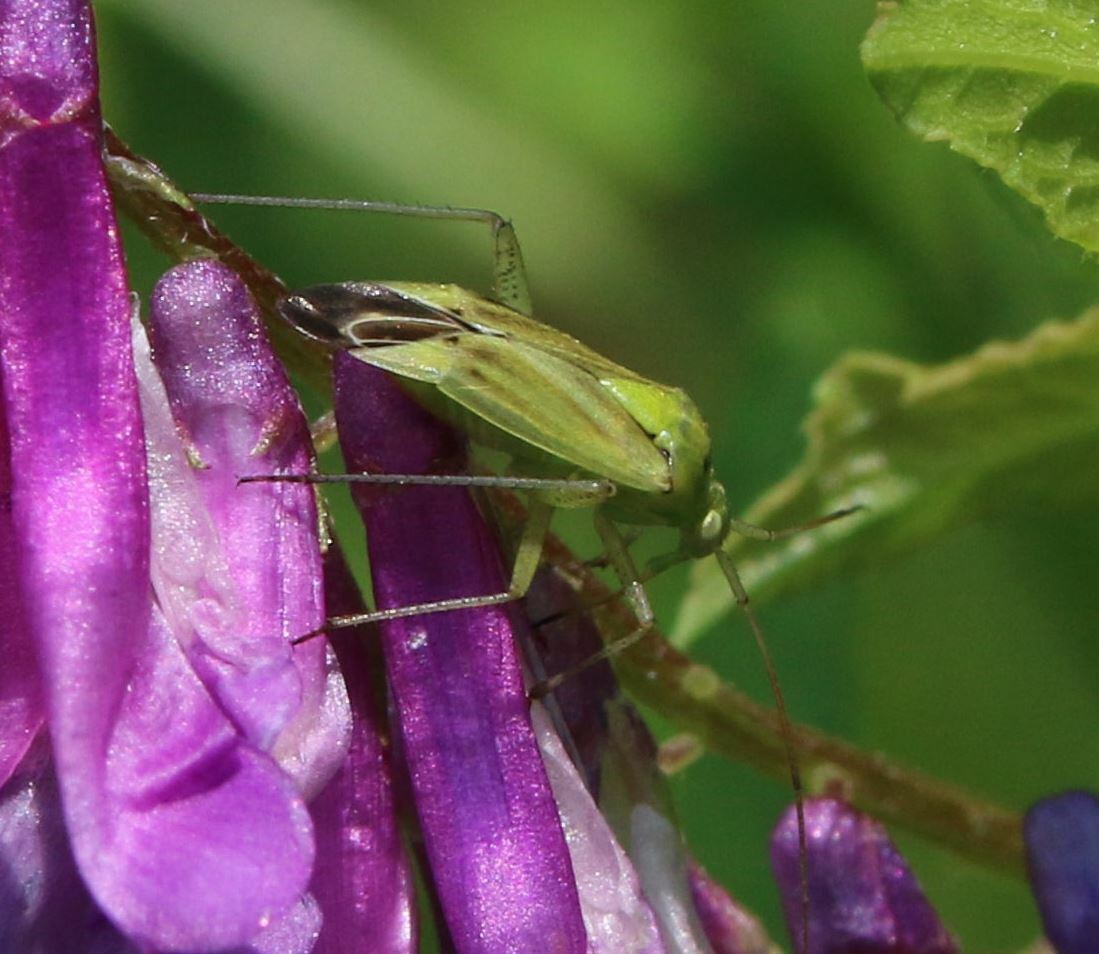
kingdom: Animalia
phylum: Arthropoda
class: Insecta
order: Hemiptera
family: Miridae
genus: Closterotomus
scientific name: Closterotomus norvegicus
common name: Plant bug
